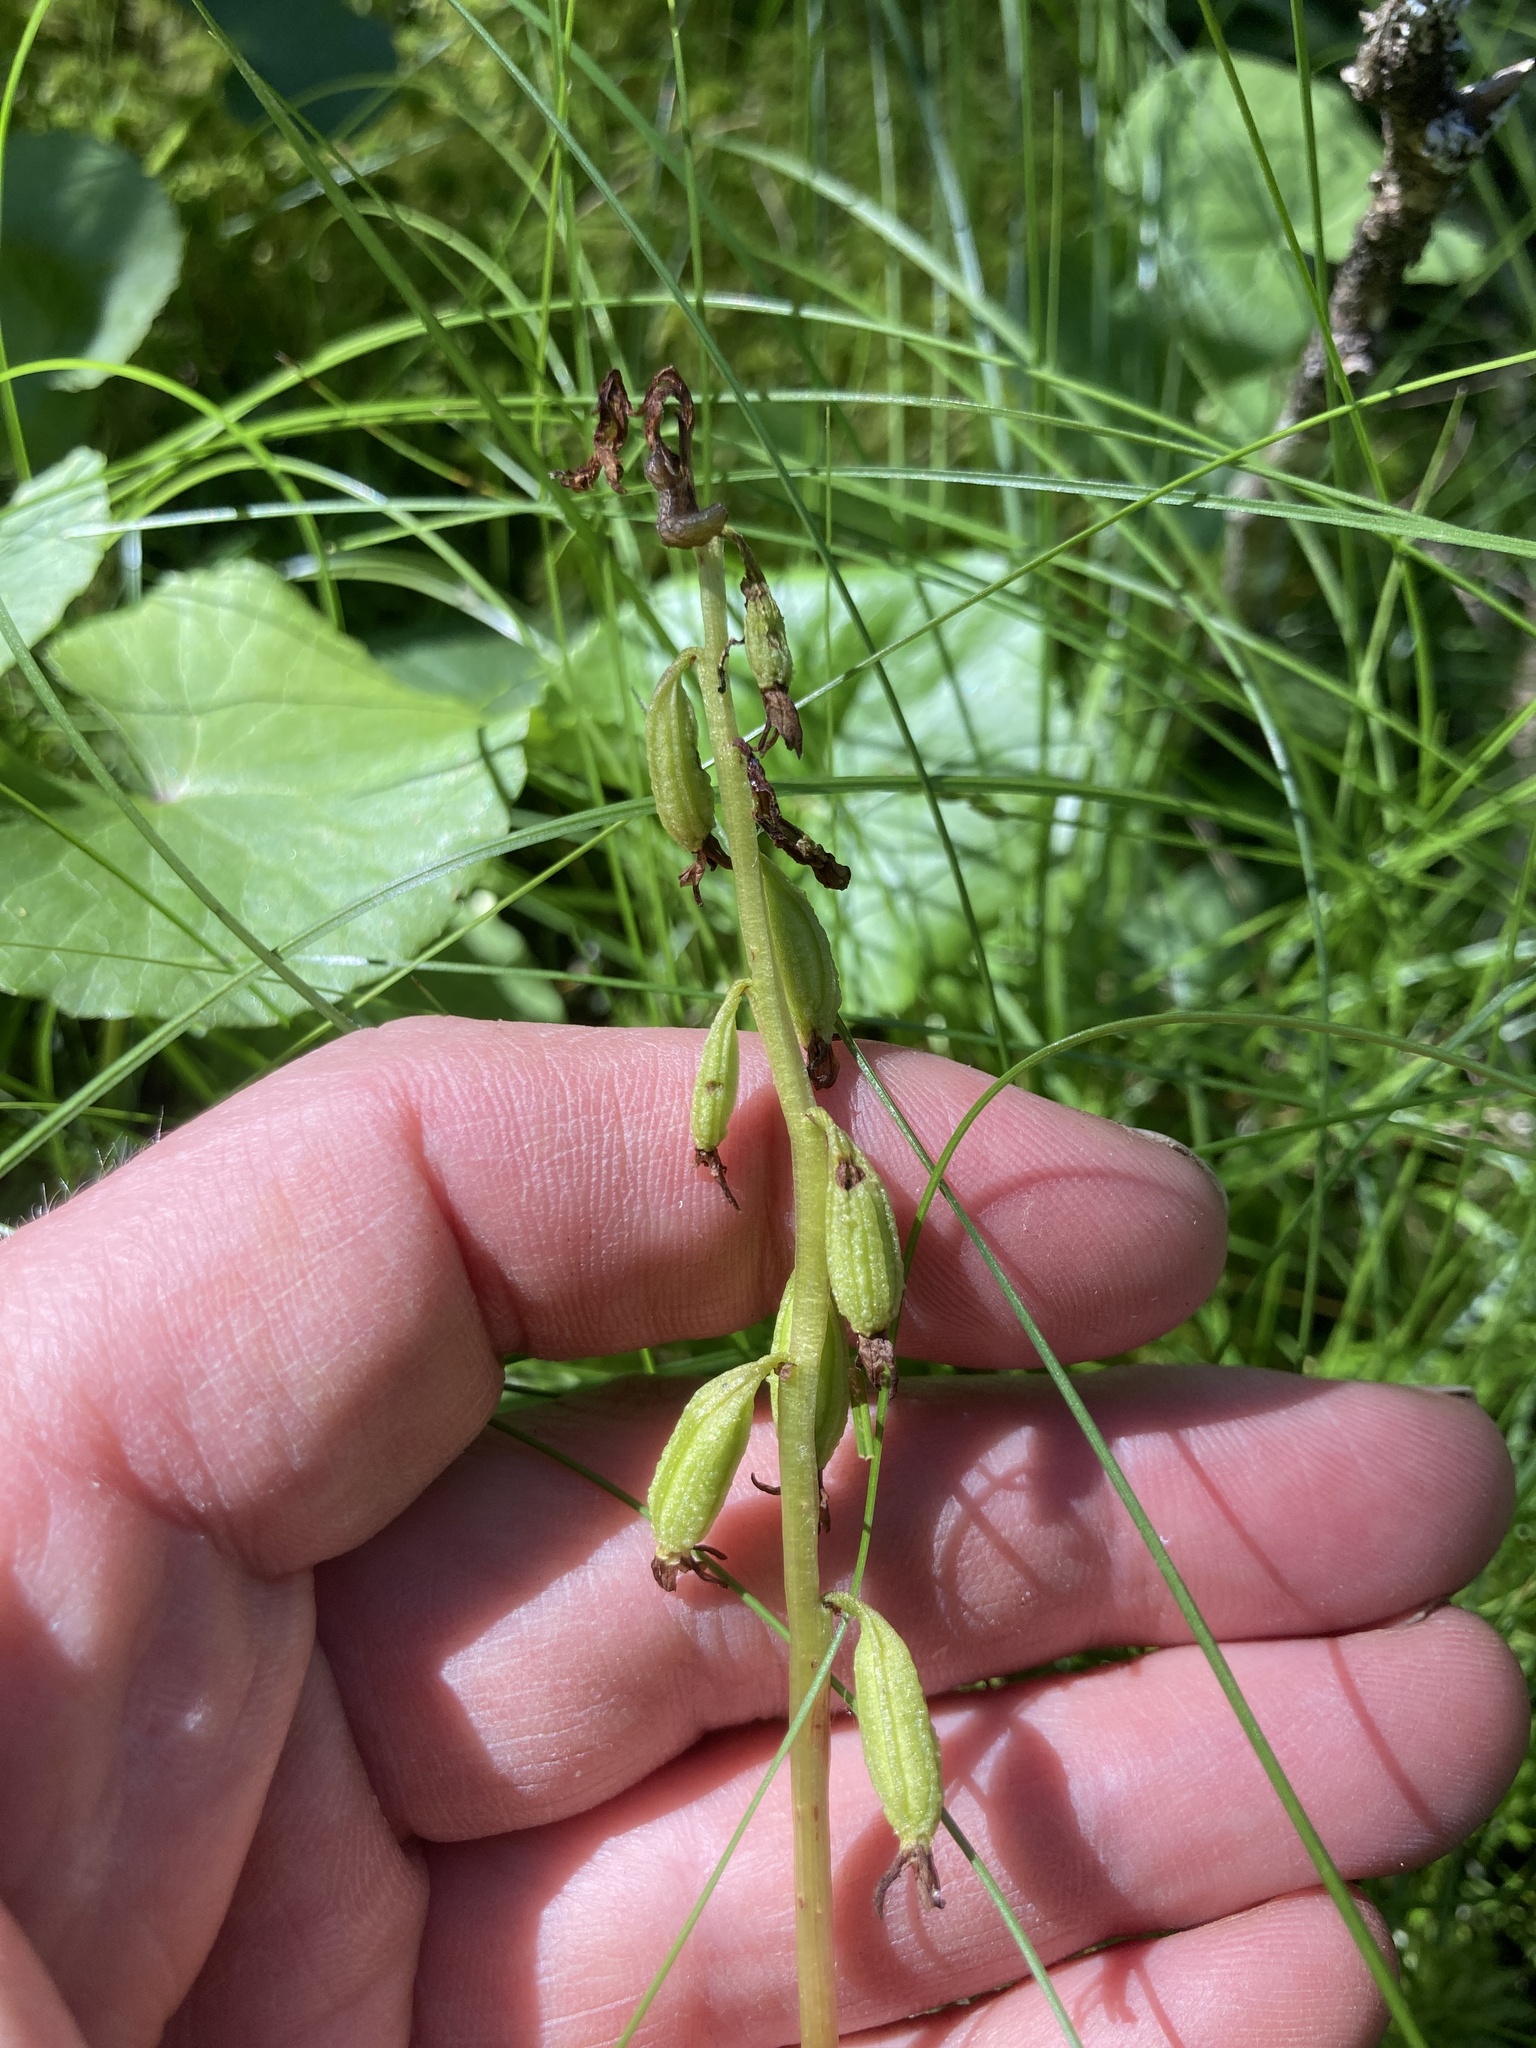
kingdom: Plantae
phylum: Tracheophyta
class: Liliopsida
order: Asparagales
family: Orchidaceae
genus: Corallorhiza
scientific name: Corallorhiza trifida
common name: Yellow coralroot
